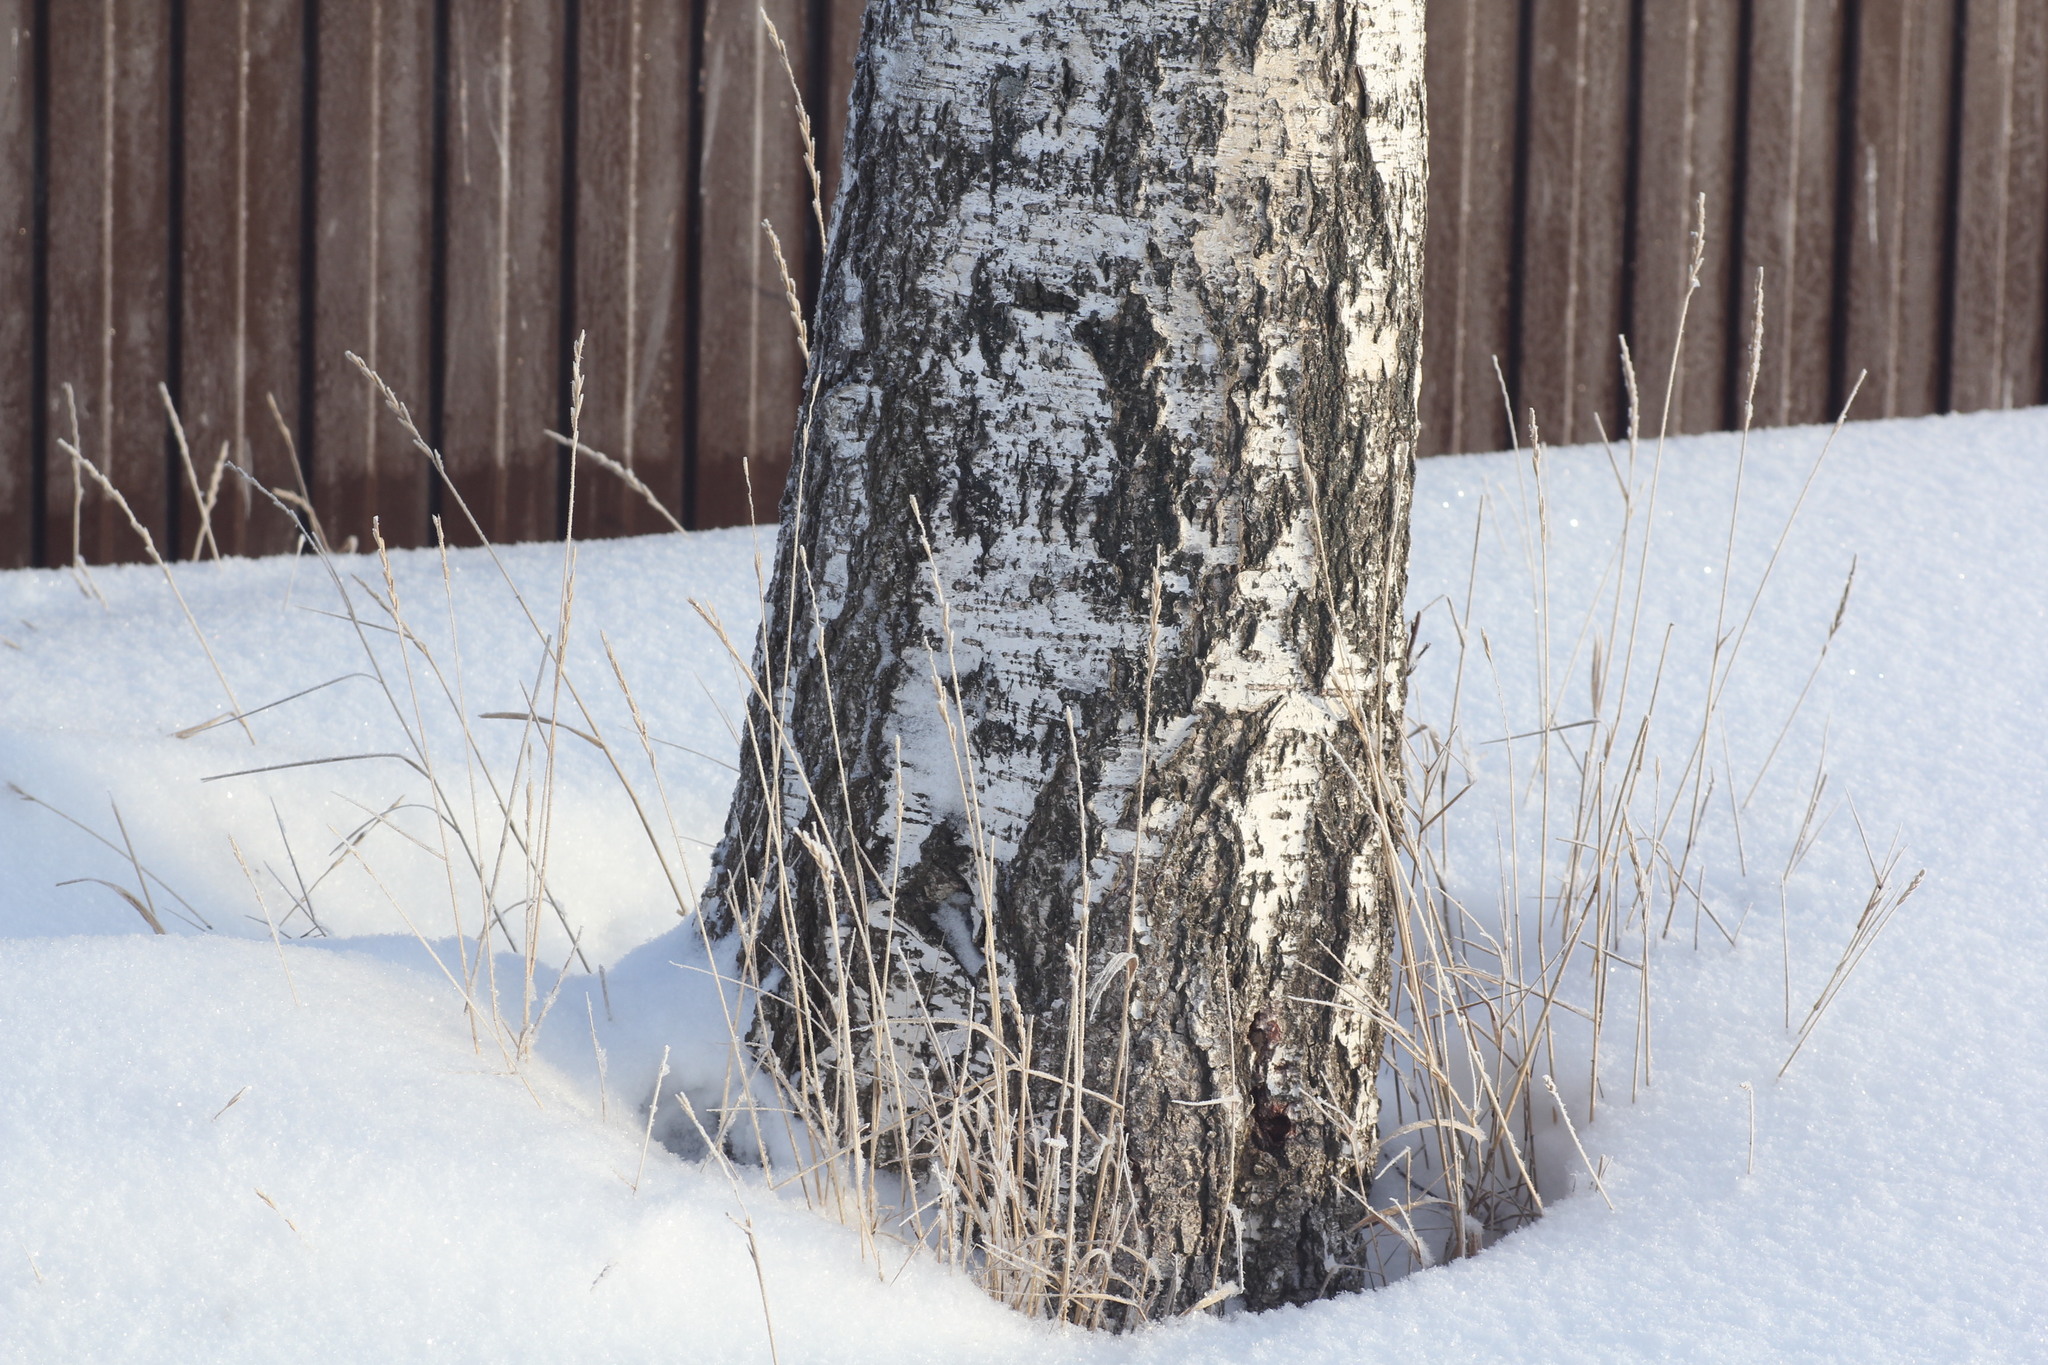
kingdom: Plantae
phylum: Tracheophyta
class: Liliopsida
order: Poales
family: Poaceae
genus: Elymus
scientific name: Elymus repens
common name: Quackgrass
